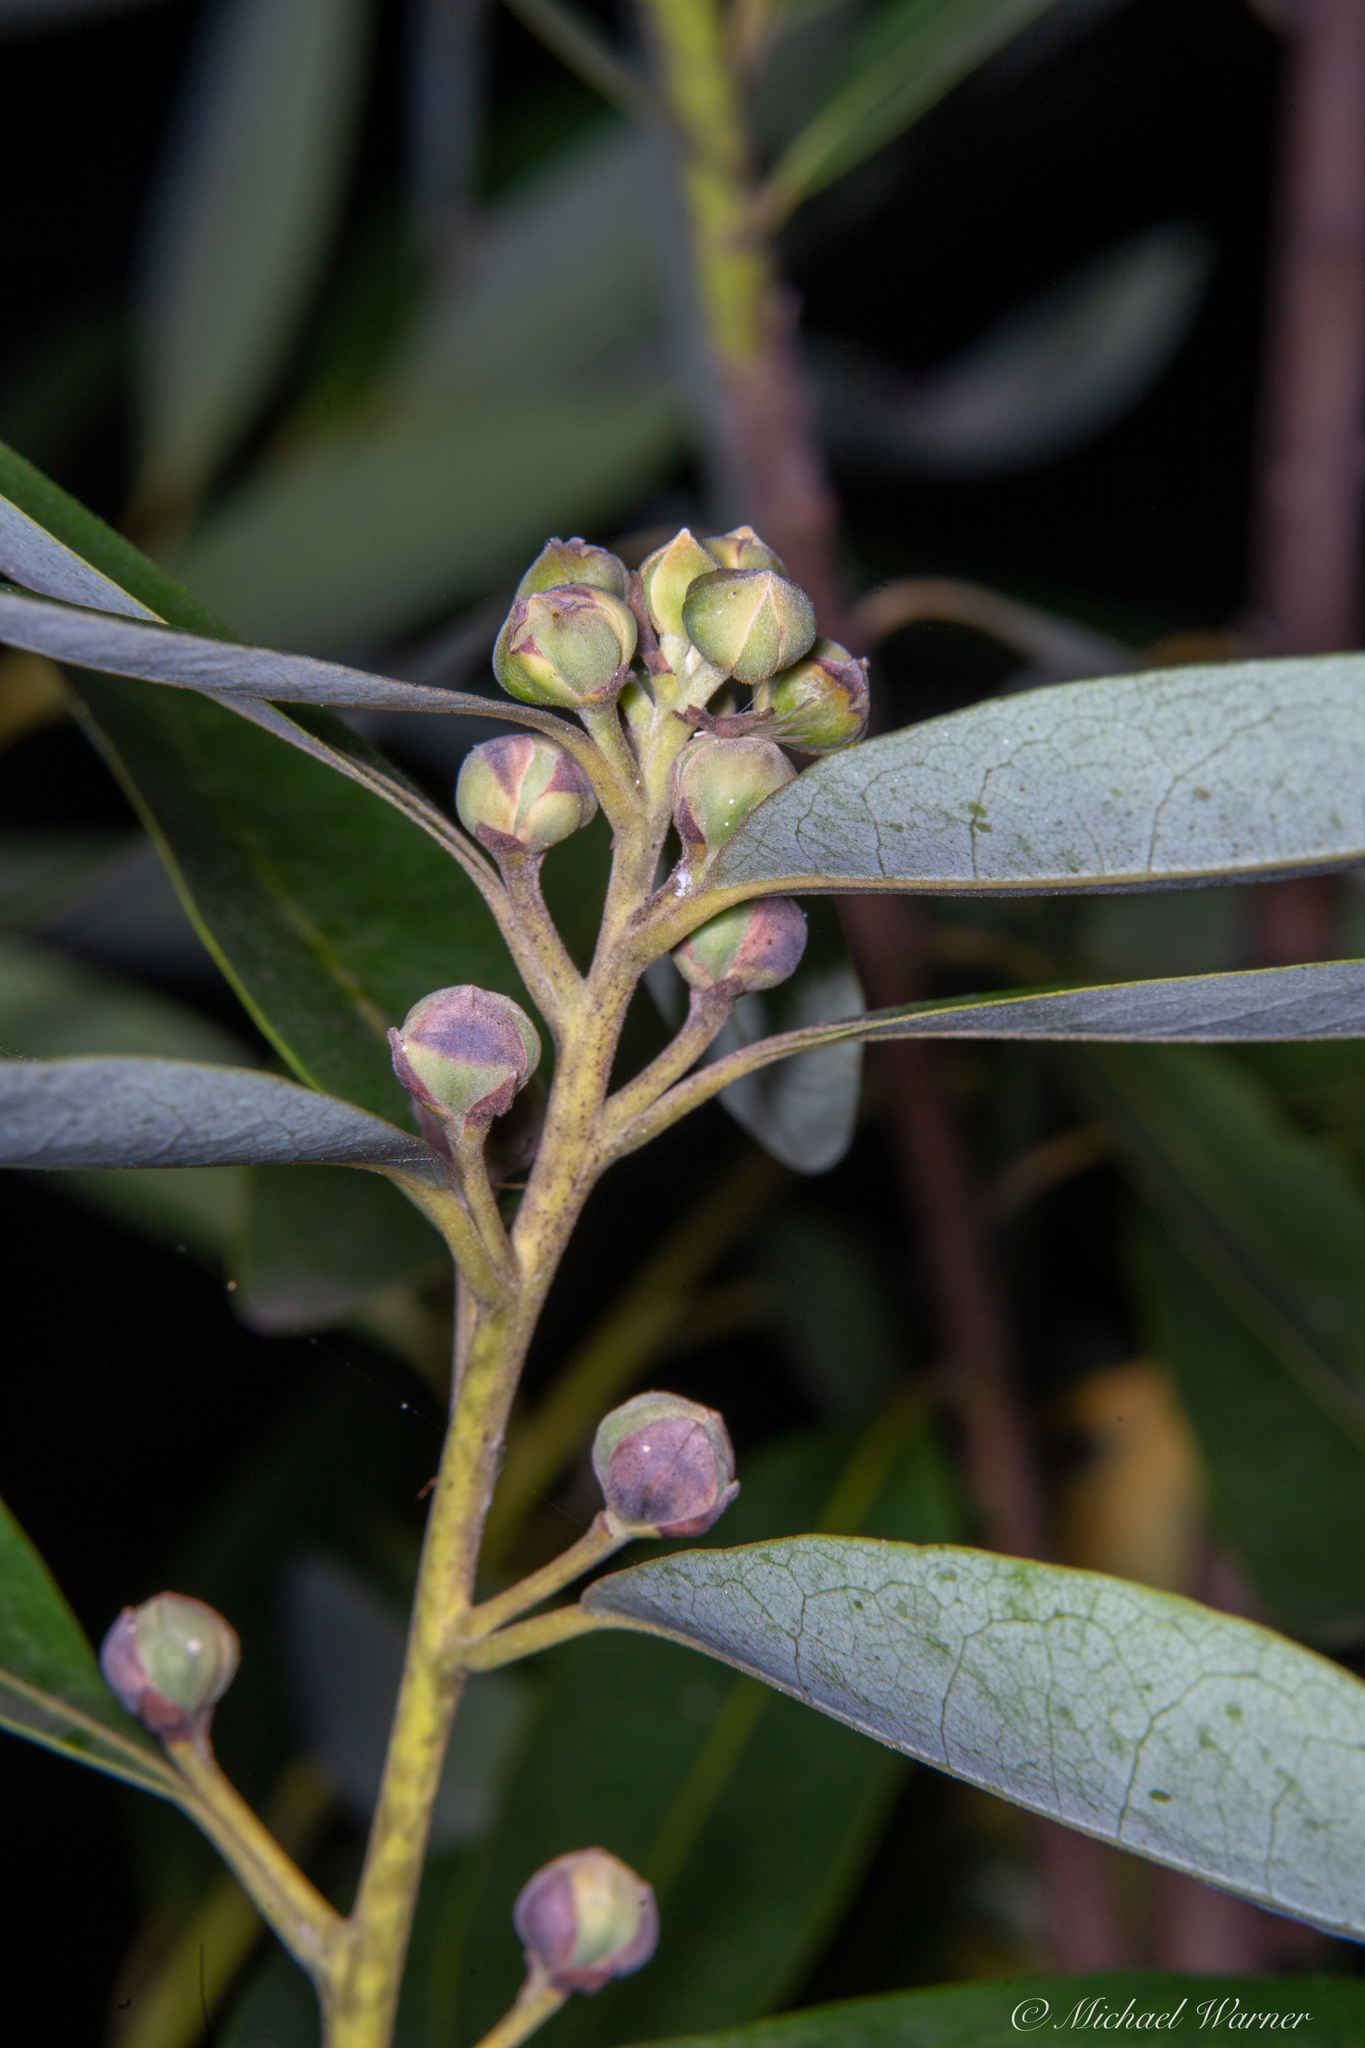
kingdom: Plantae
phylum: Tracheophyta
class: Magnoliopsida
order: Laurales
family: Lauraceae
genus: Umbellularia
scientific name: Umbellularia californica
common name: California bay
